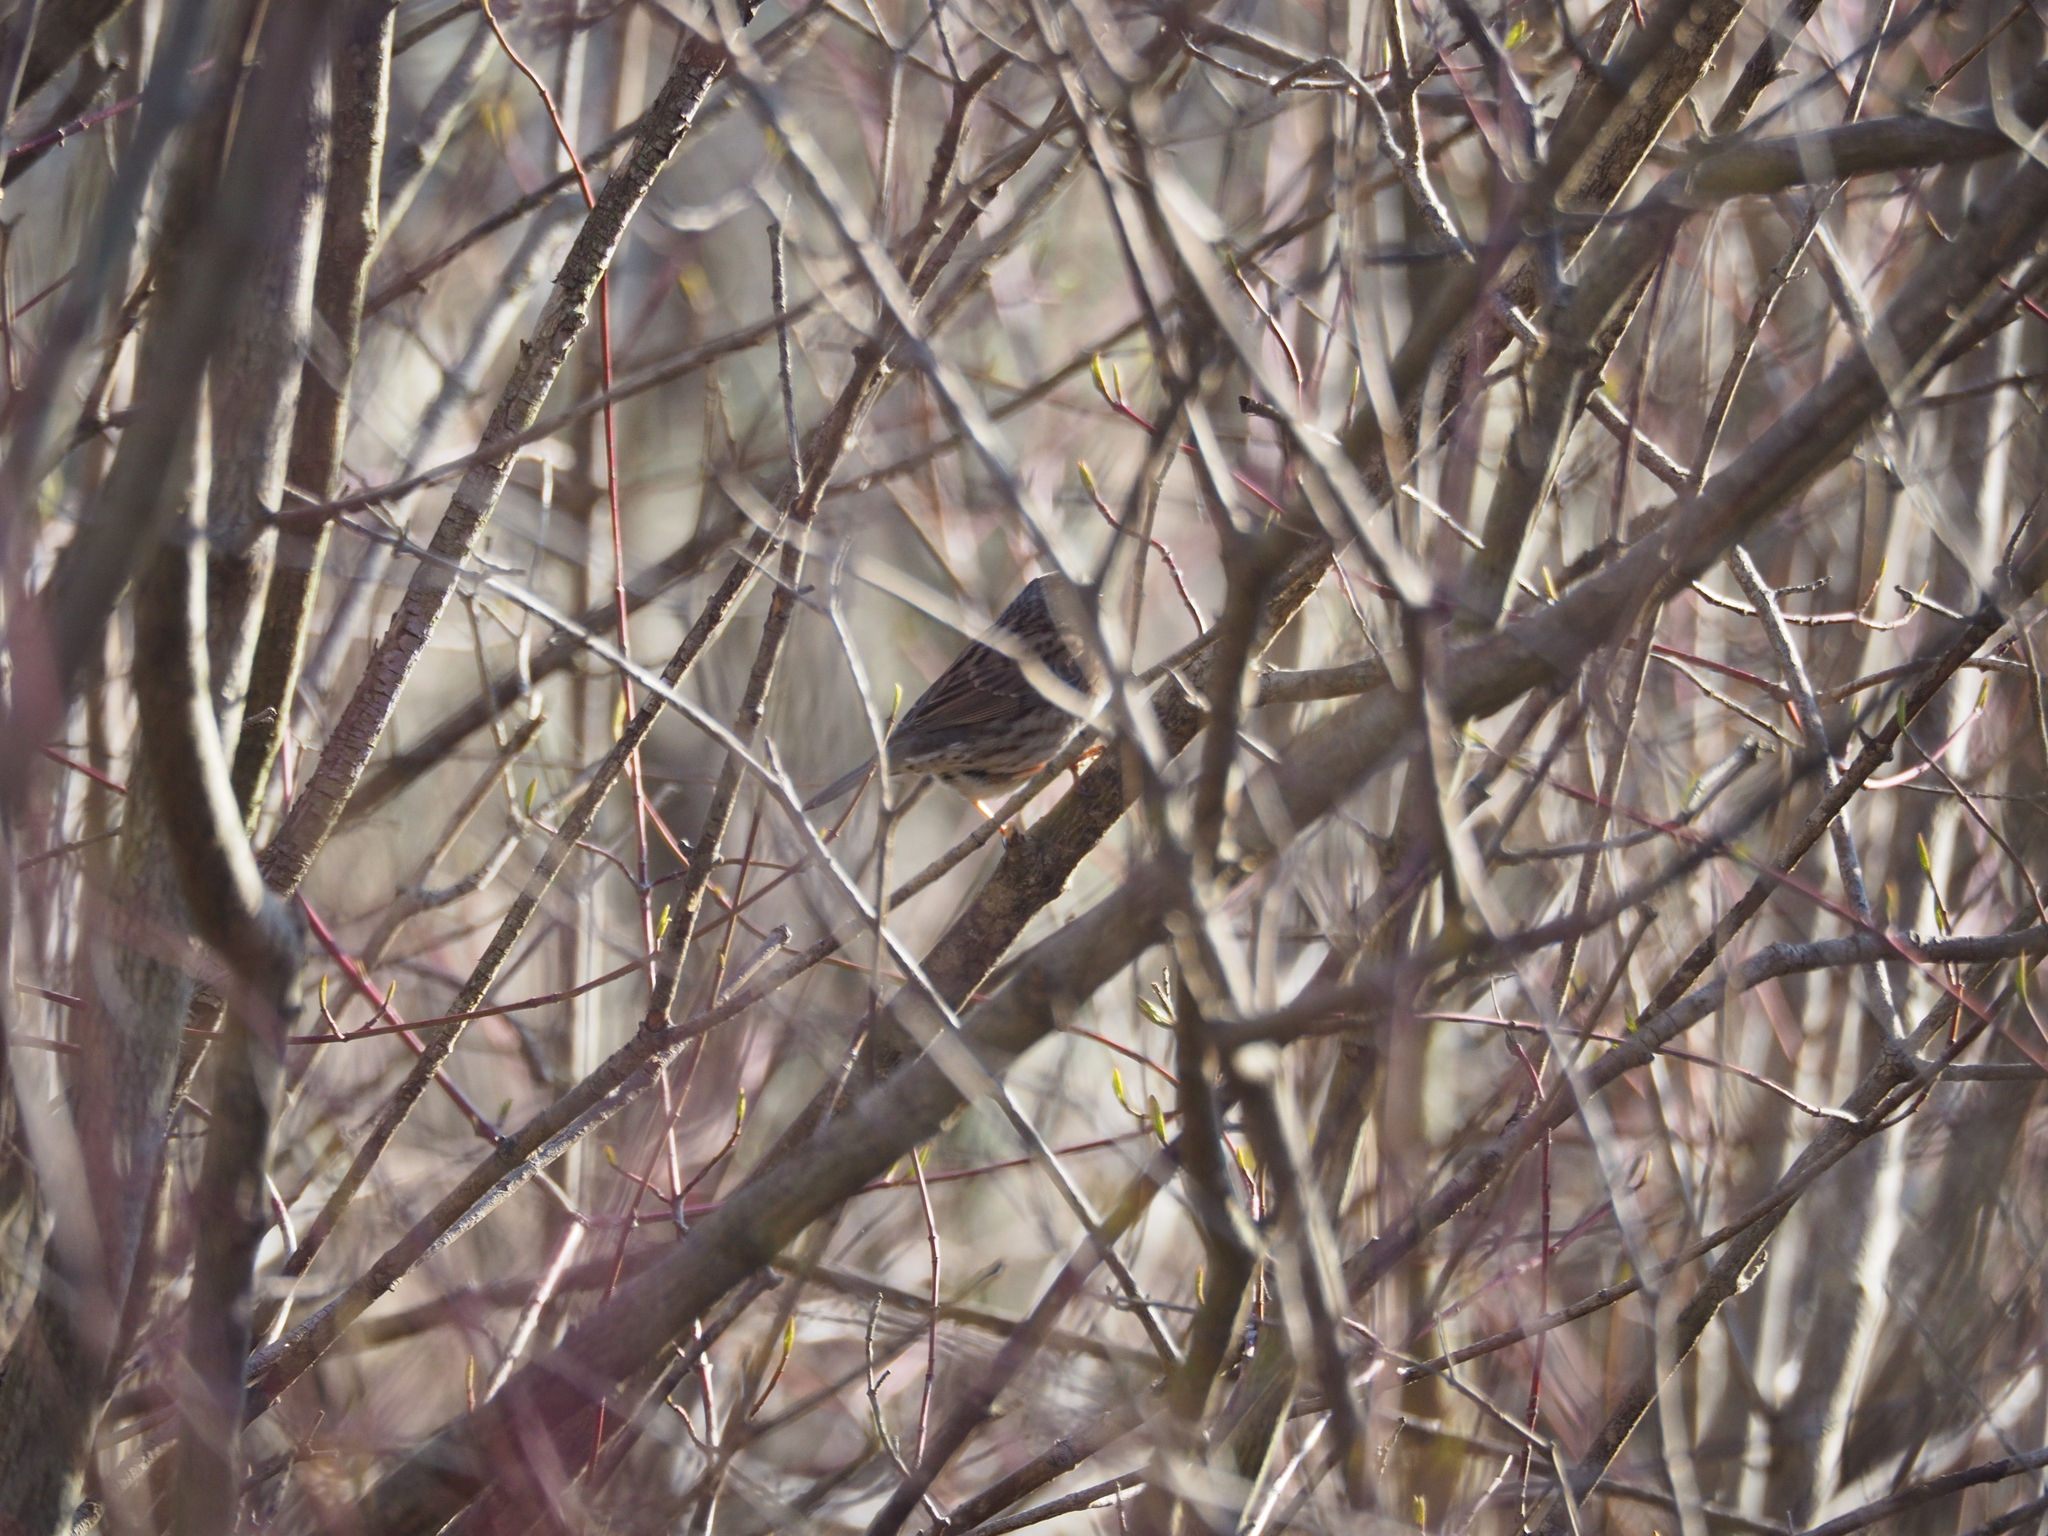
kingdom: Animalia
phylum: Chordata
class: Aves
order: Passeriformes
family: Prunellidae
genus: Prunella
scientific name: Prunella modularis
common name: Dunnock
